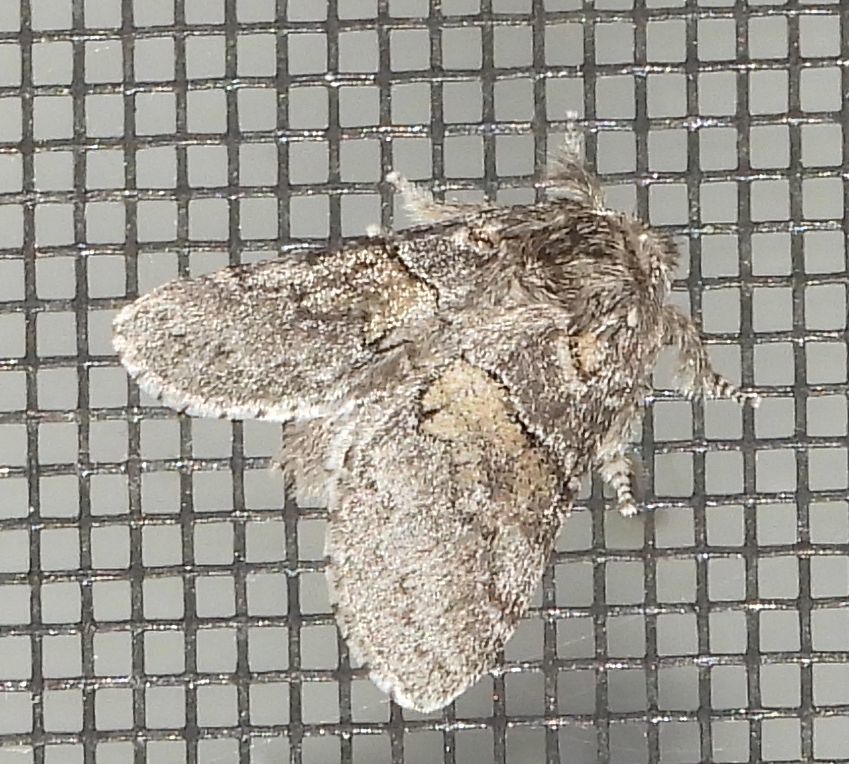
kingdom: Animalia
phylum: Arthropoda
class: Insecta
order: Lepidoptera
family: Notodontidae
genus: Gluphisia
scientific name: Gluphisia septentrionis
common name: Common gluphisia
